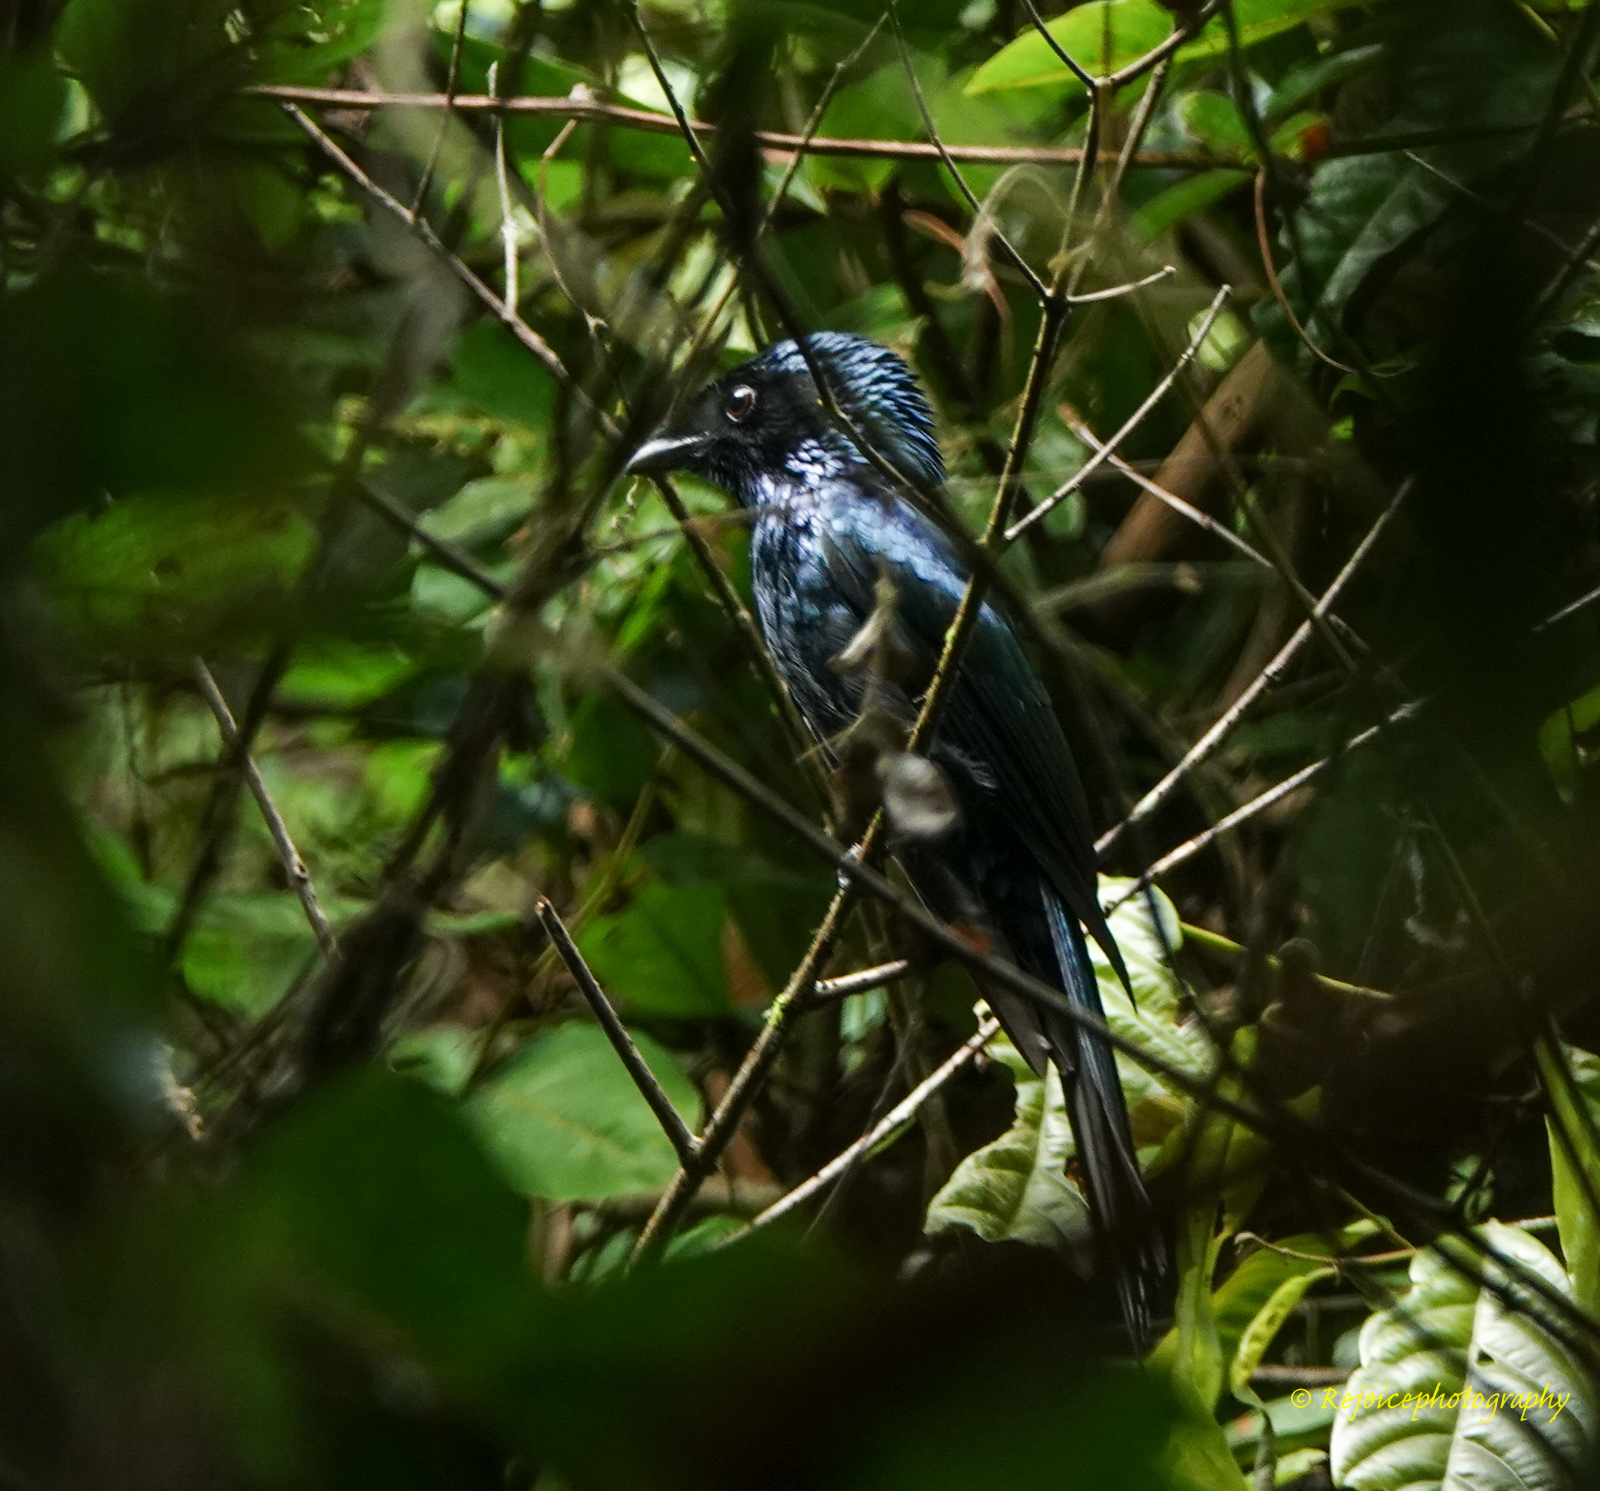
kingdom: Animalia
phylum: Chordata
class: Aves
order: Passeriformes
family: Dicruridae
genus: Dicrurus
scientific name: Dicrurus aeneus
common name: Bronzed drongo
